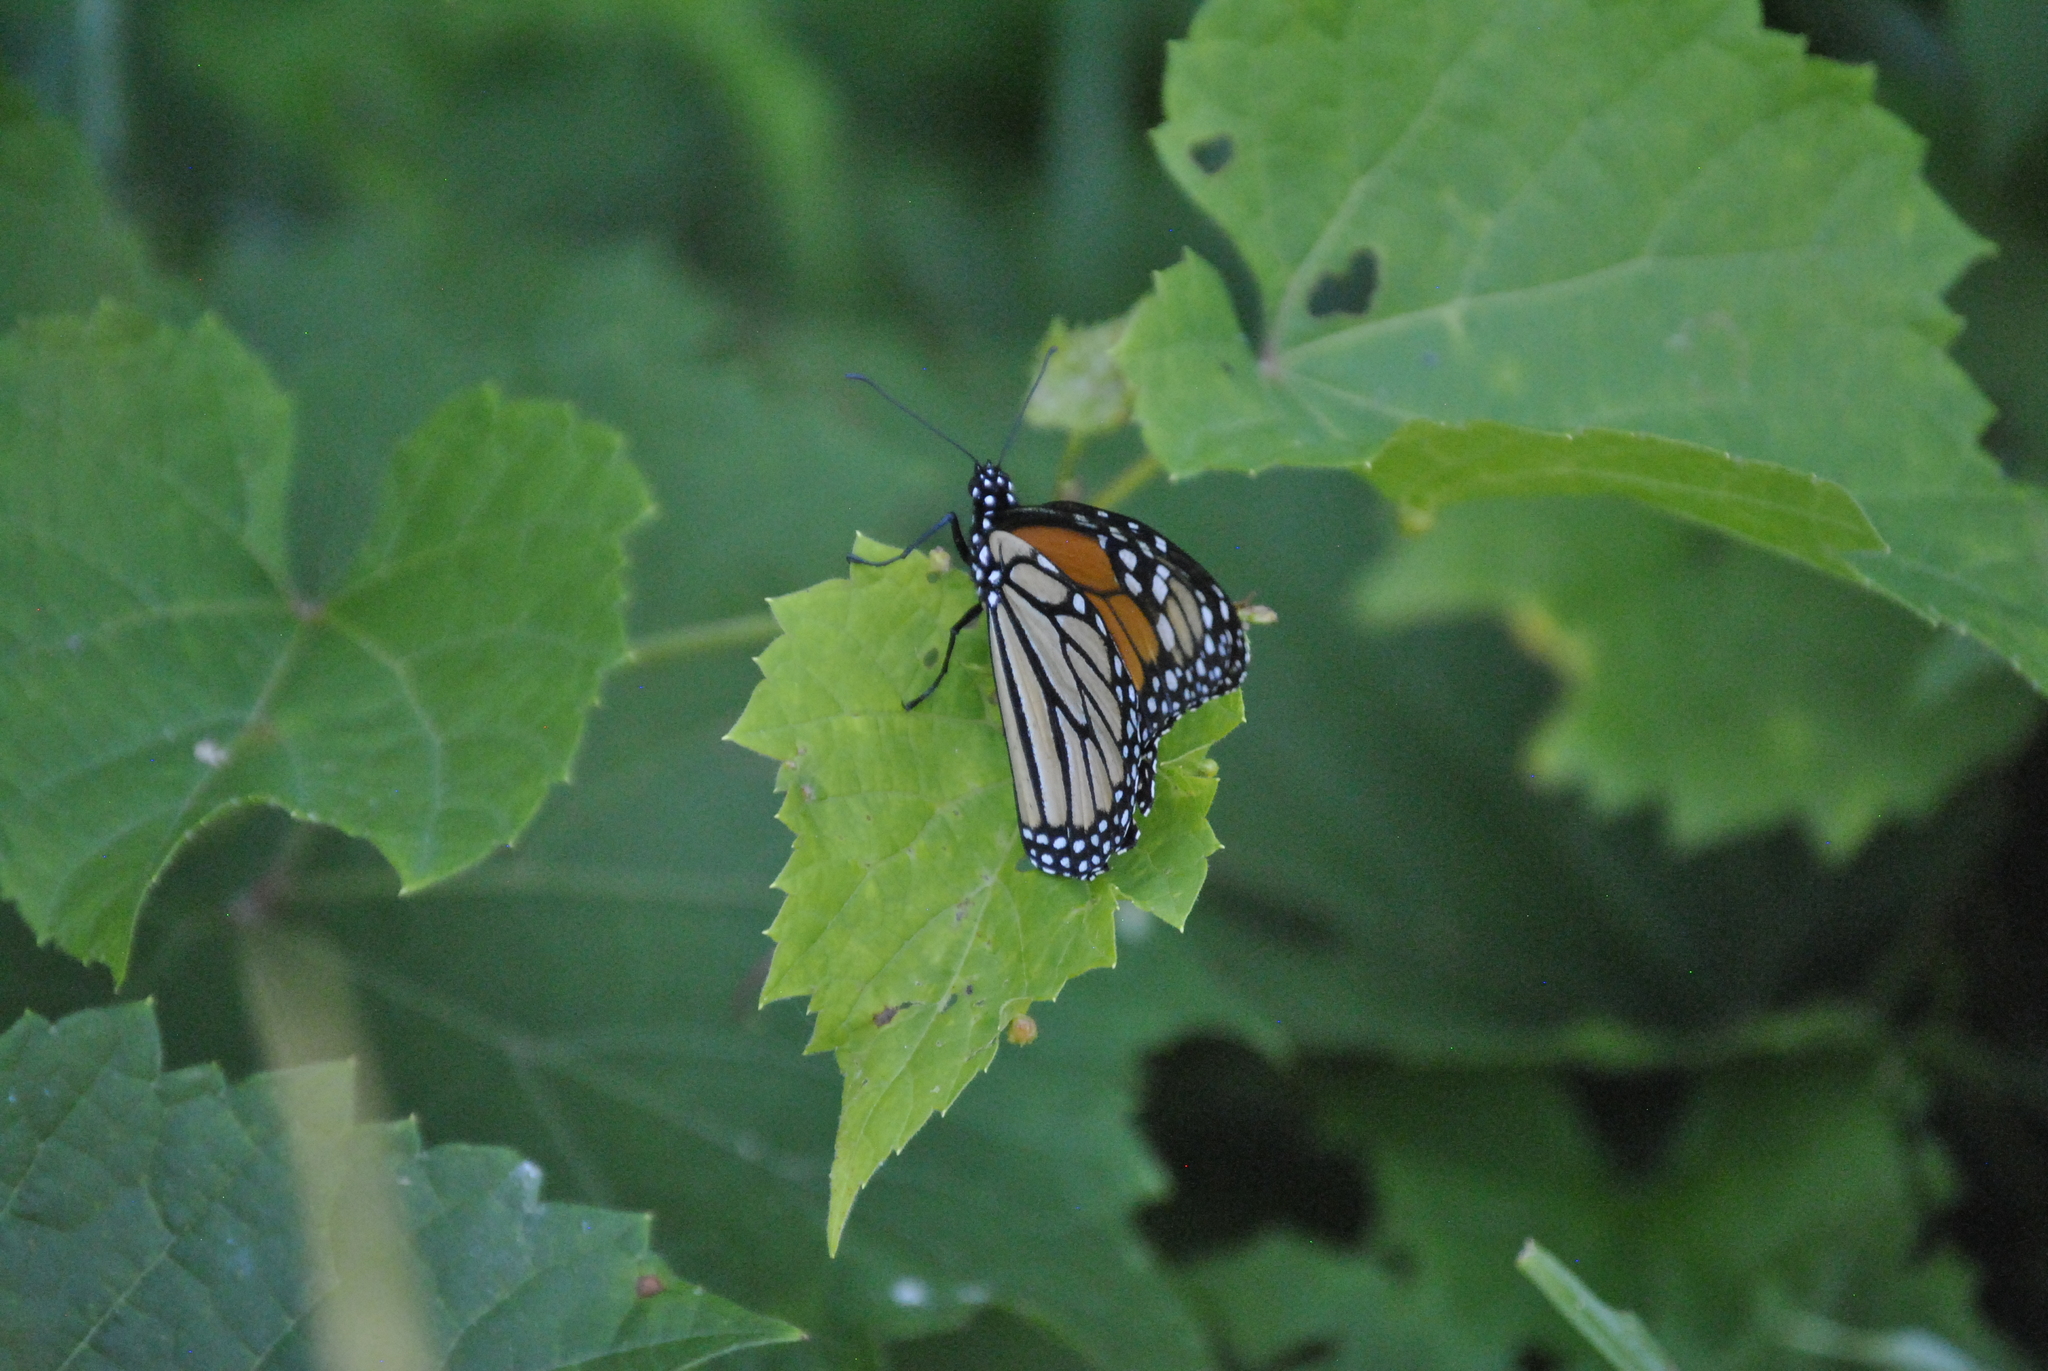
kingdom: Animalia
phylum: Arthropoda
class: Insecta
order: Lepidoptera
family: Nymphalidae
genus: Danaus
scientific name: Danaus plexippus
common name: Monarch
